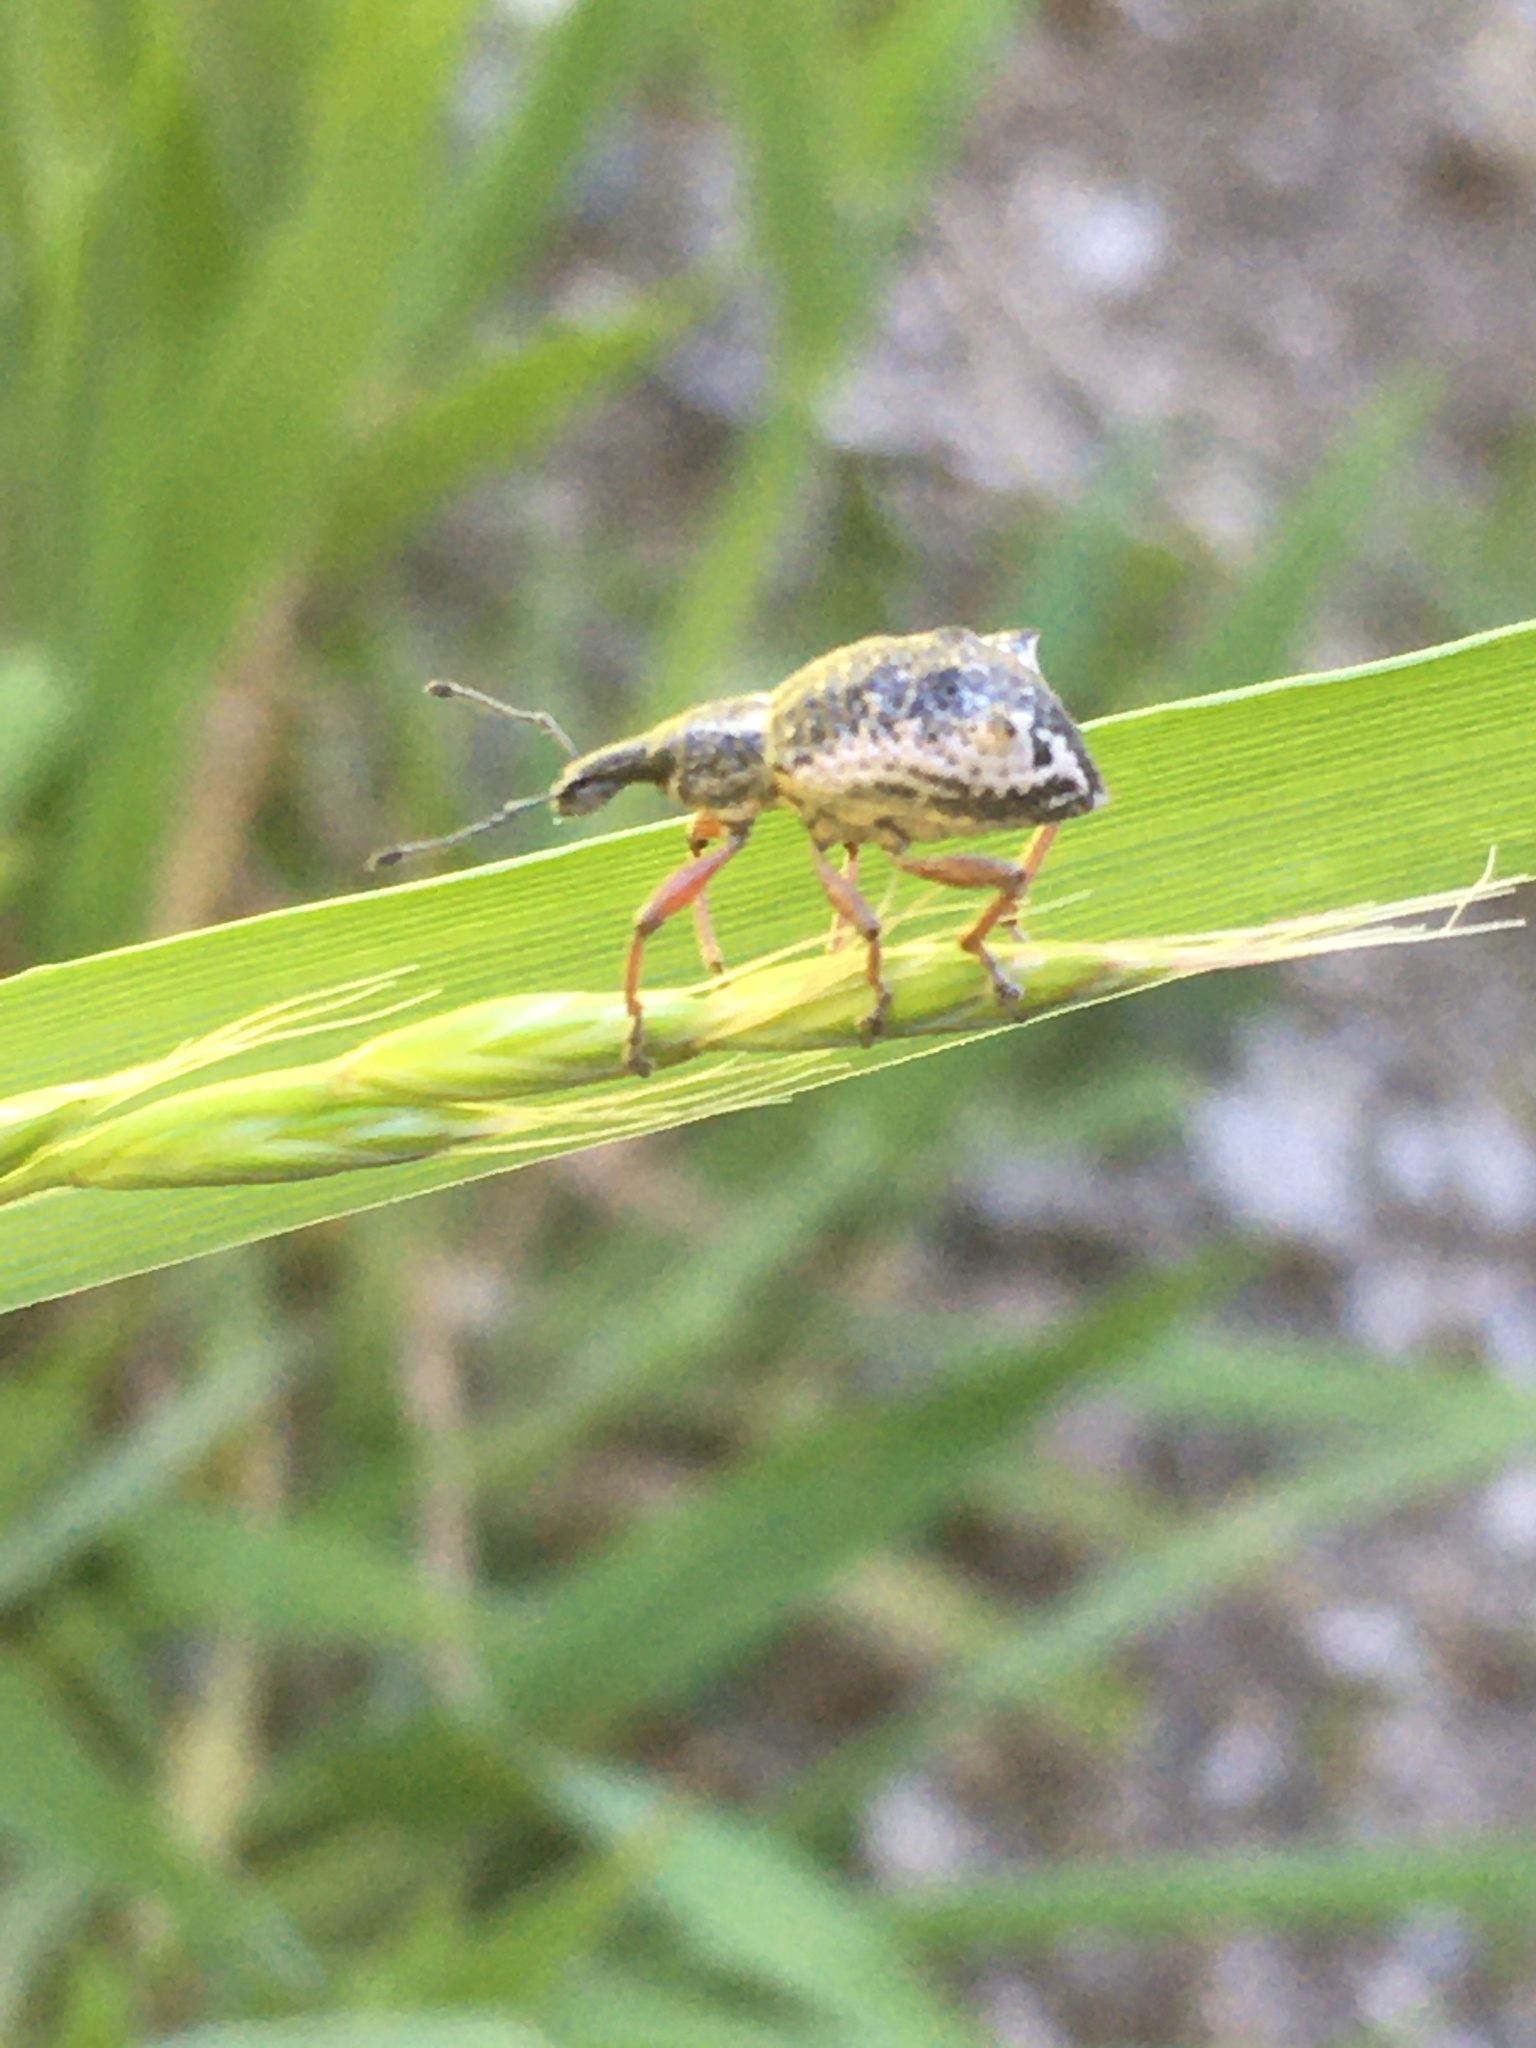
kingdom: Animalia
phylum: Arthropoda
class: Insecta
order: Coleoptera
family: Curculionidae
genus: Hybreoleptops
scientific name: Hybreoleptops tuberculifer
